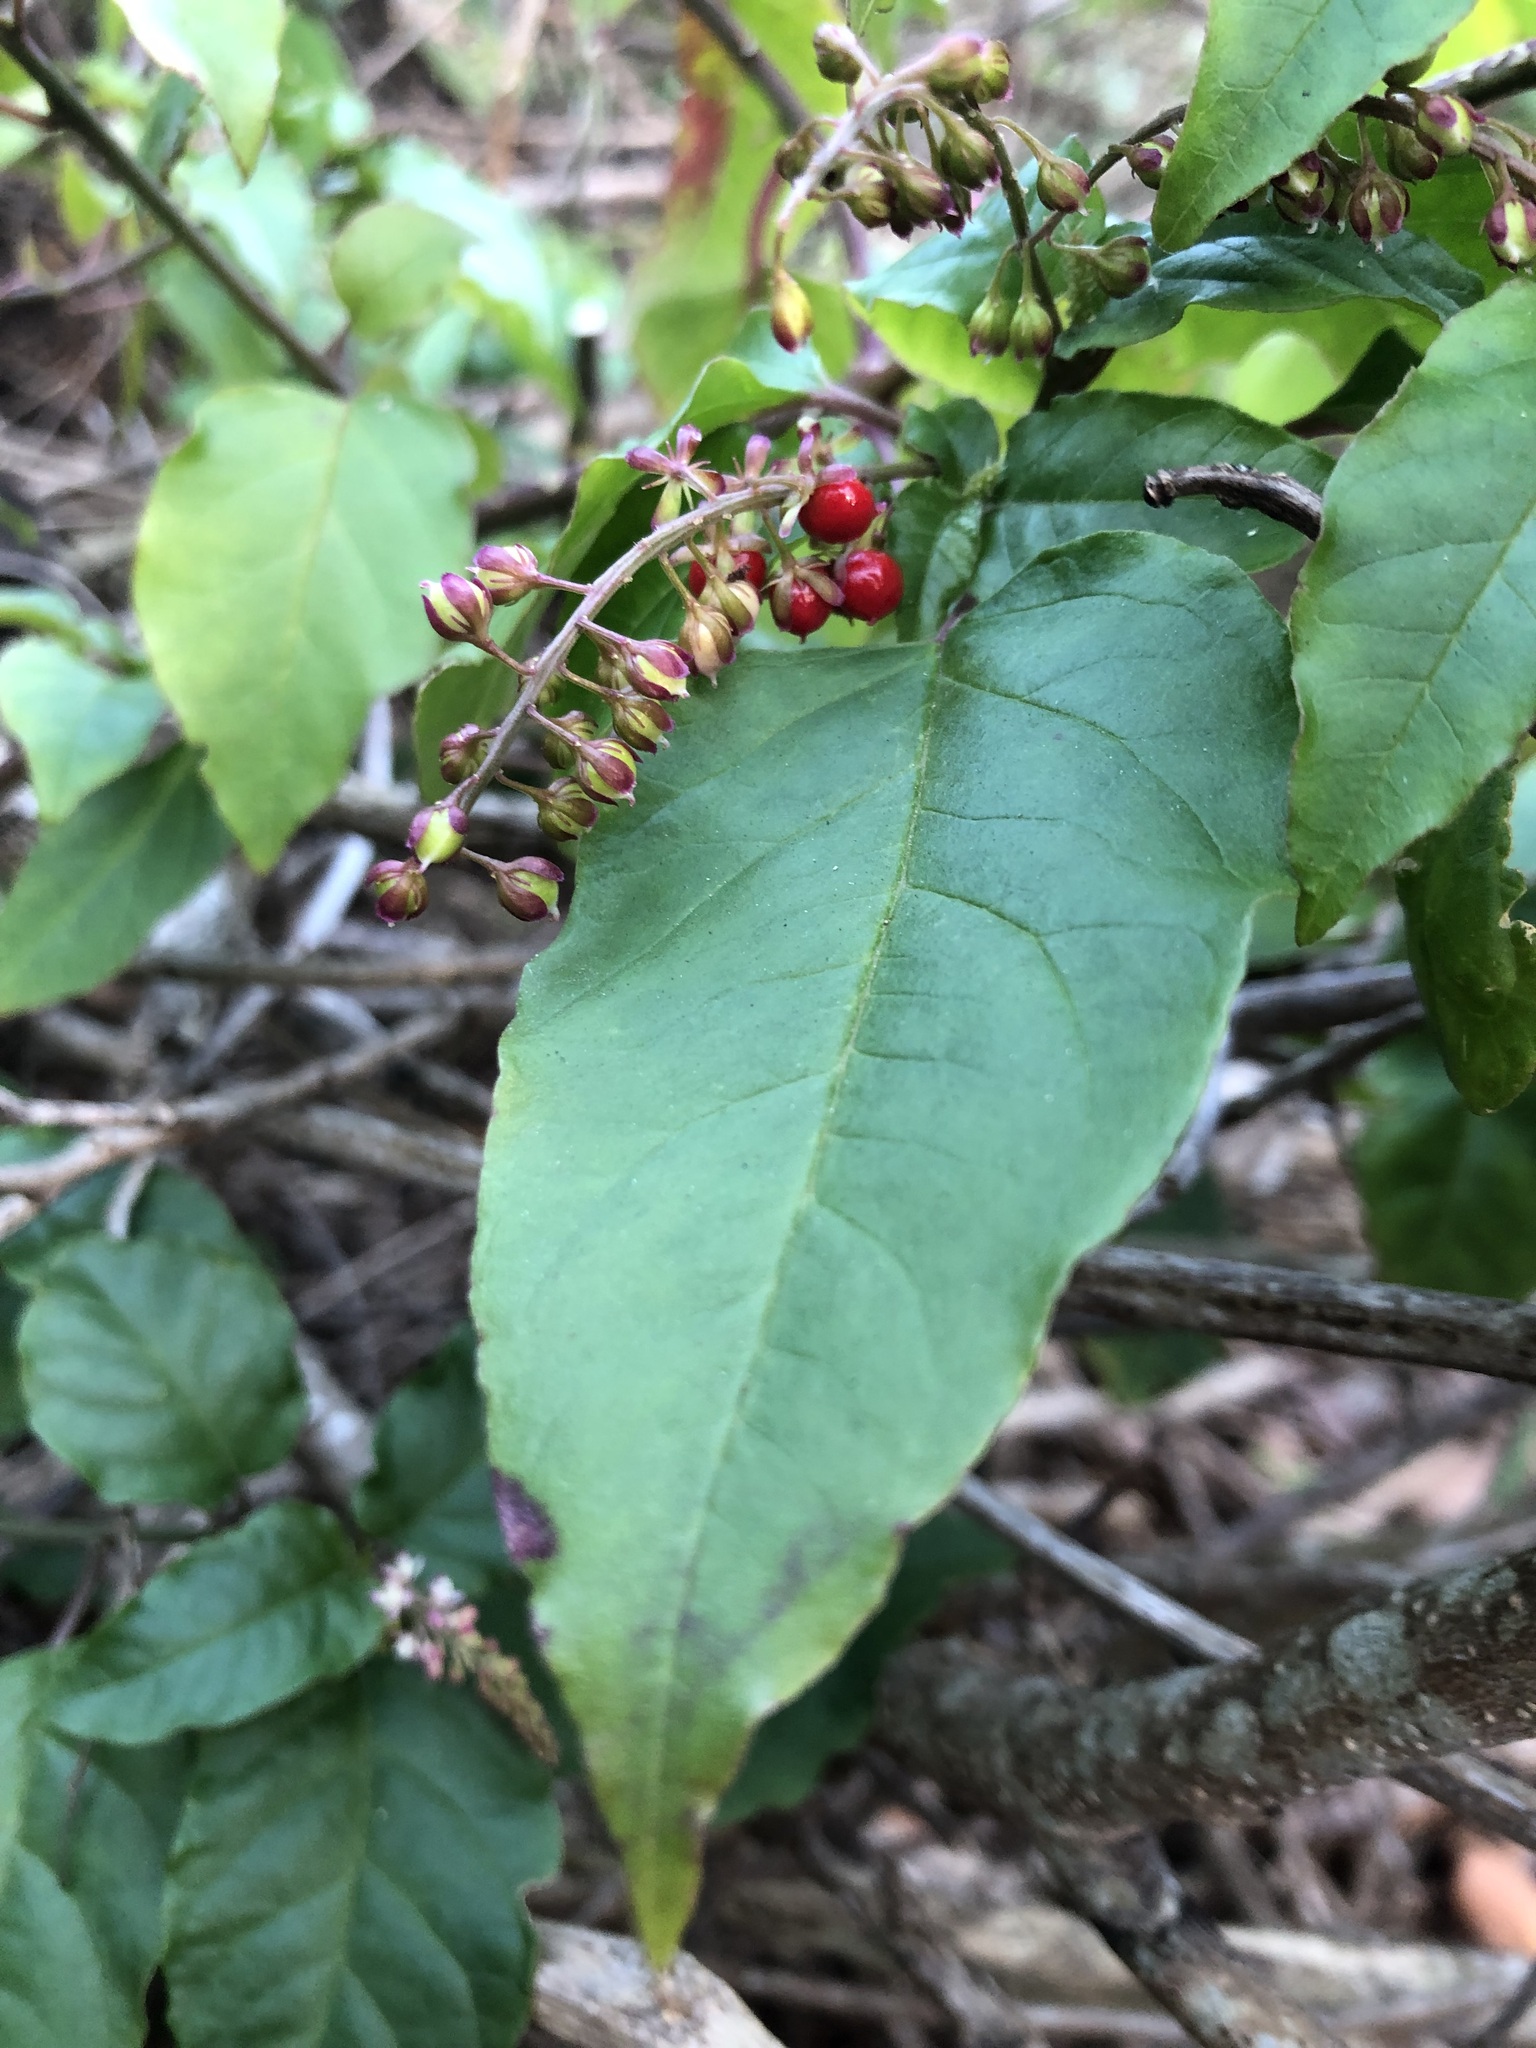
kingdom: Plantae
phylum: Tracheophyta
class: Magnoliopsida
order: Caryophyllales
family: Phytolaccaceae
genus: Rivina
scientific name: Rivina humilis
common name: Rougeplant
